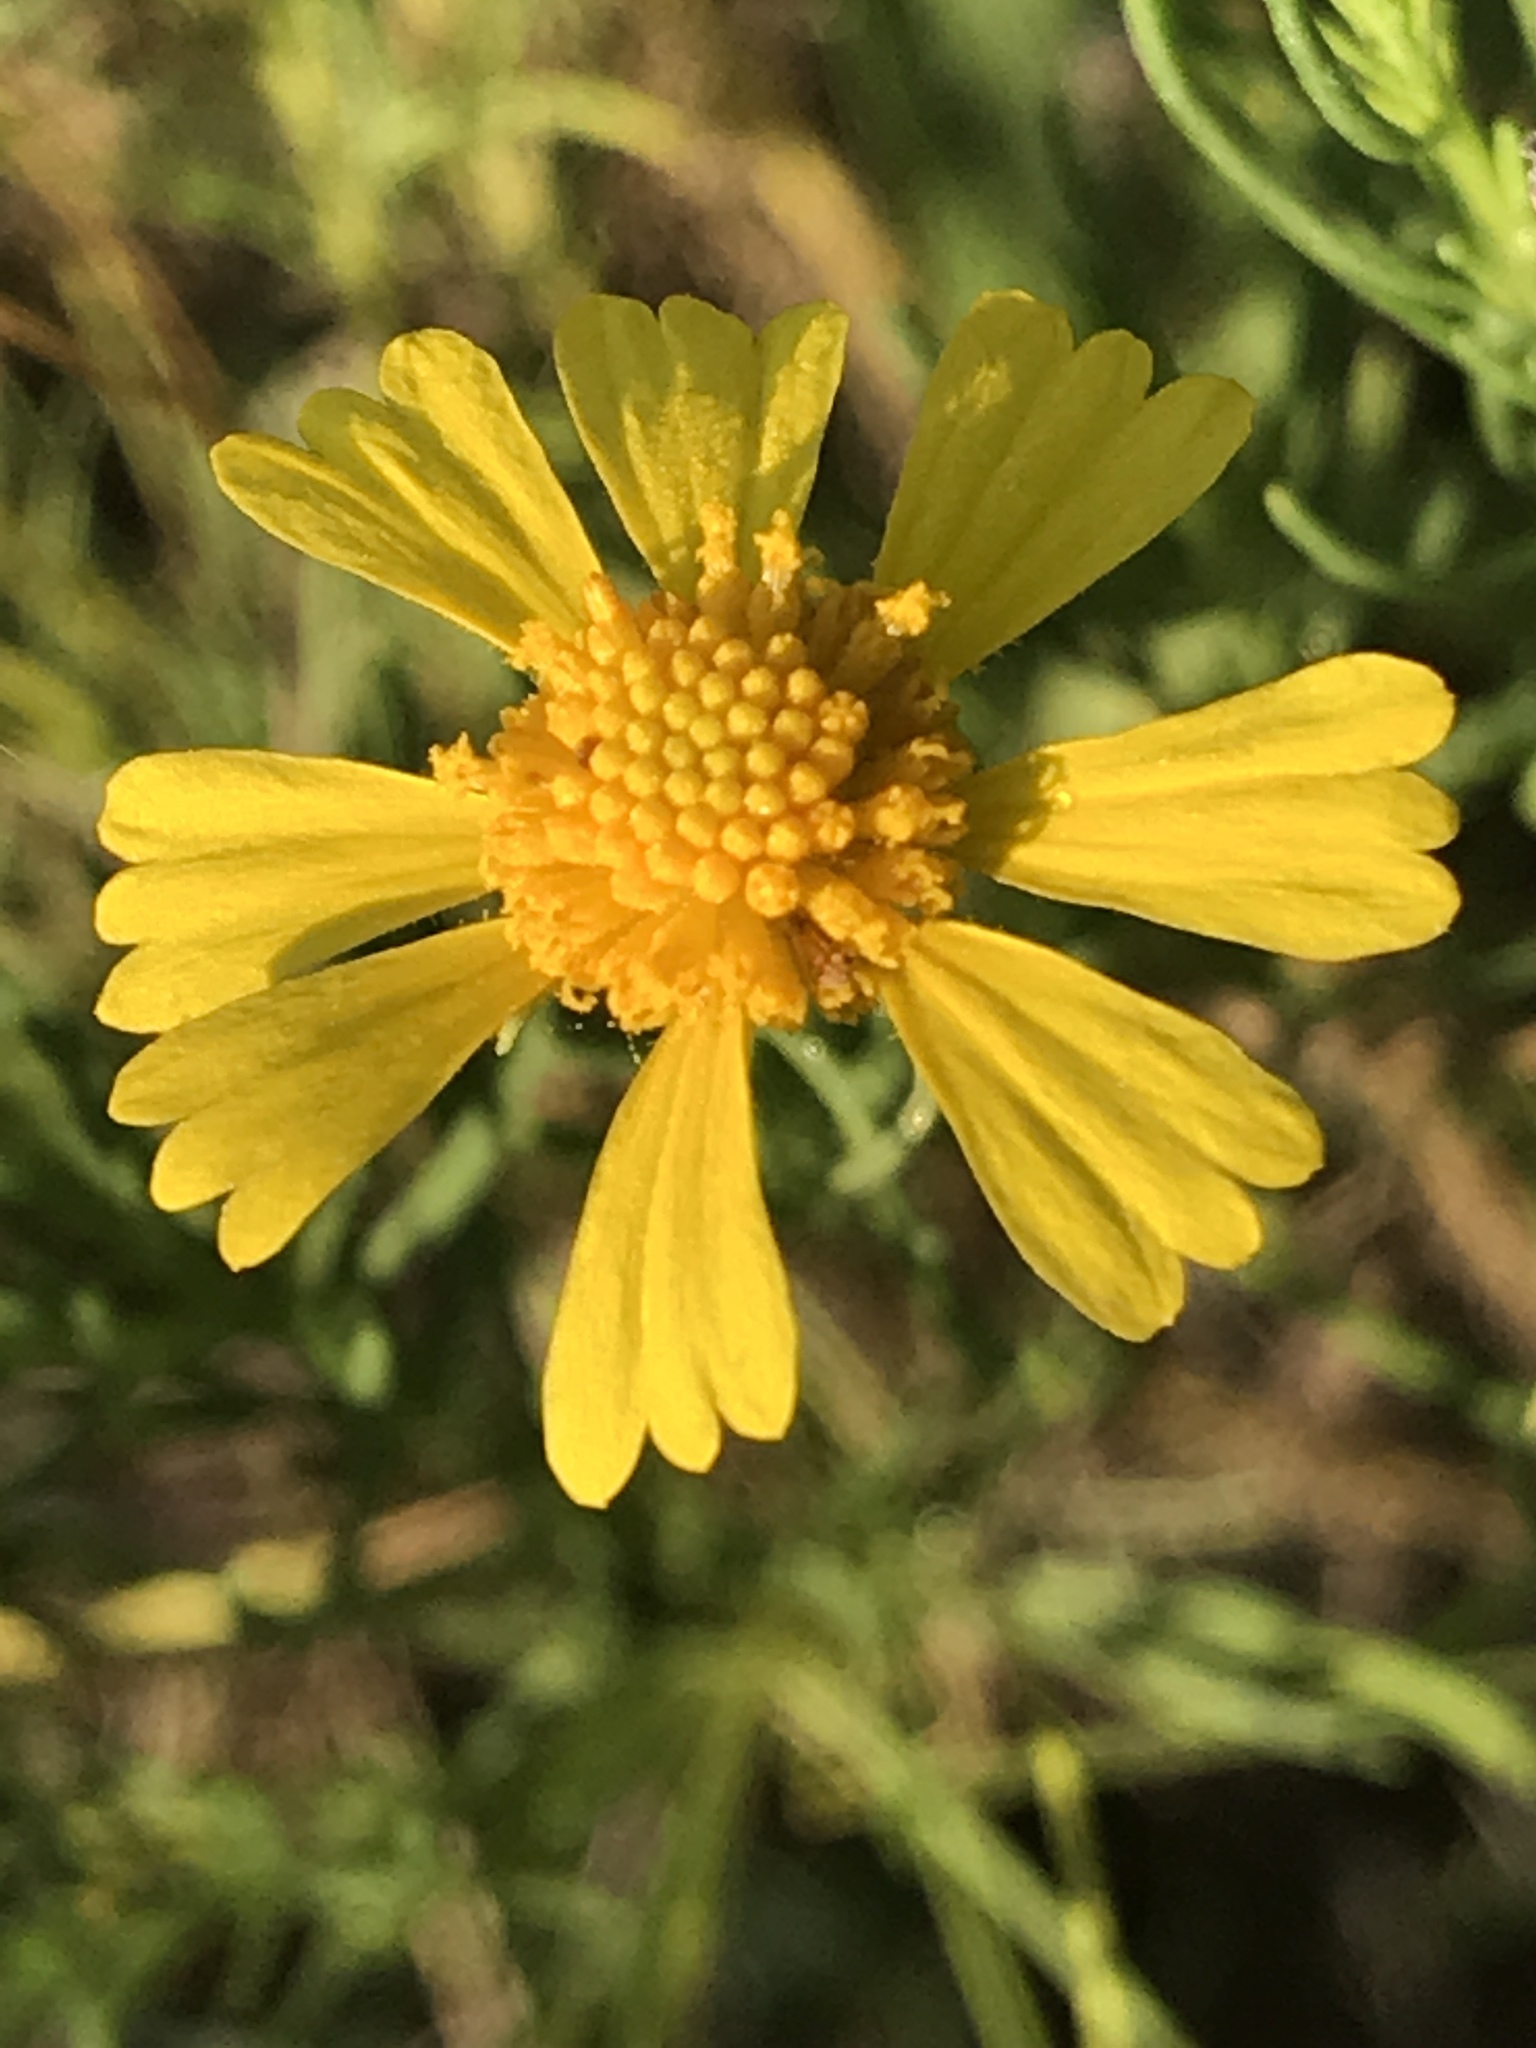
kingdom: Plantae
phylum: Tracheophyta
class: Magnoliopsida
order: Asterales
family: Asteraceae
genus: Helenium
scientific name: Helenium amarum
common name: Bitter sneezeweed
